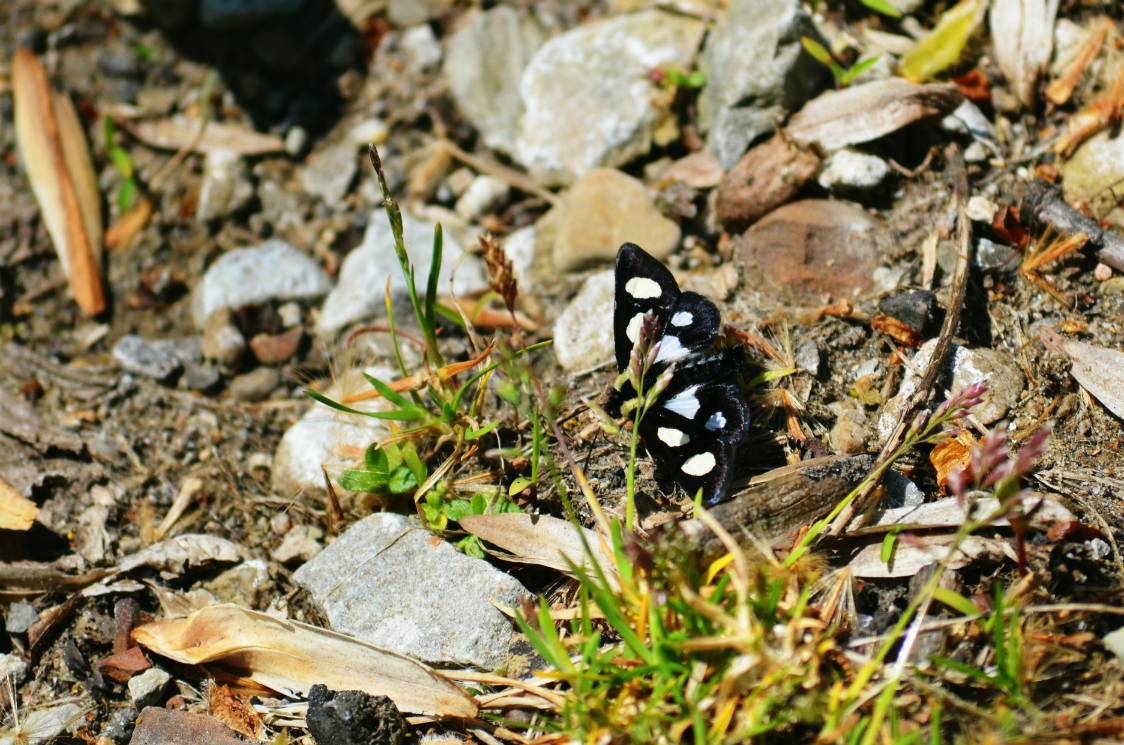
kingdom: Animalia
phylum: Arthropoda
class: Insecta
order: Lepidoptera
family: Noctuidae
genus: Alypia
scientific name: Alypia octomaculata
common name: Eight-spotted forester
